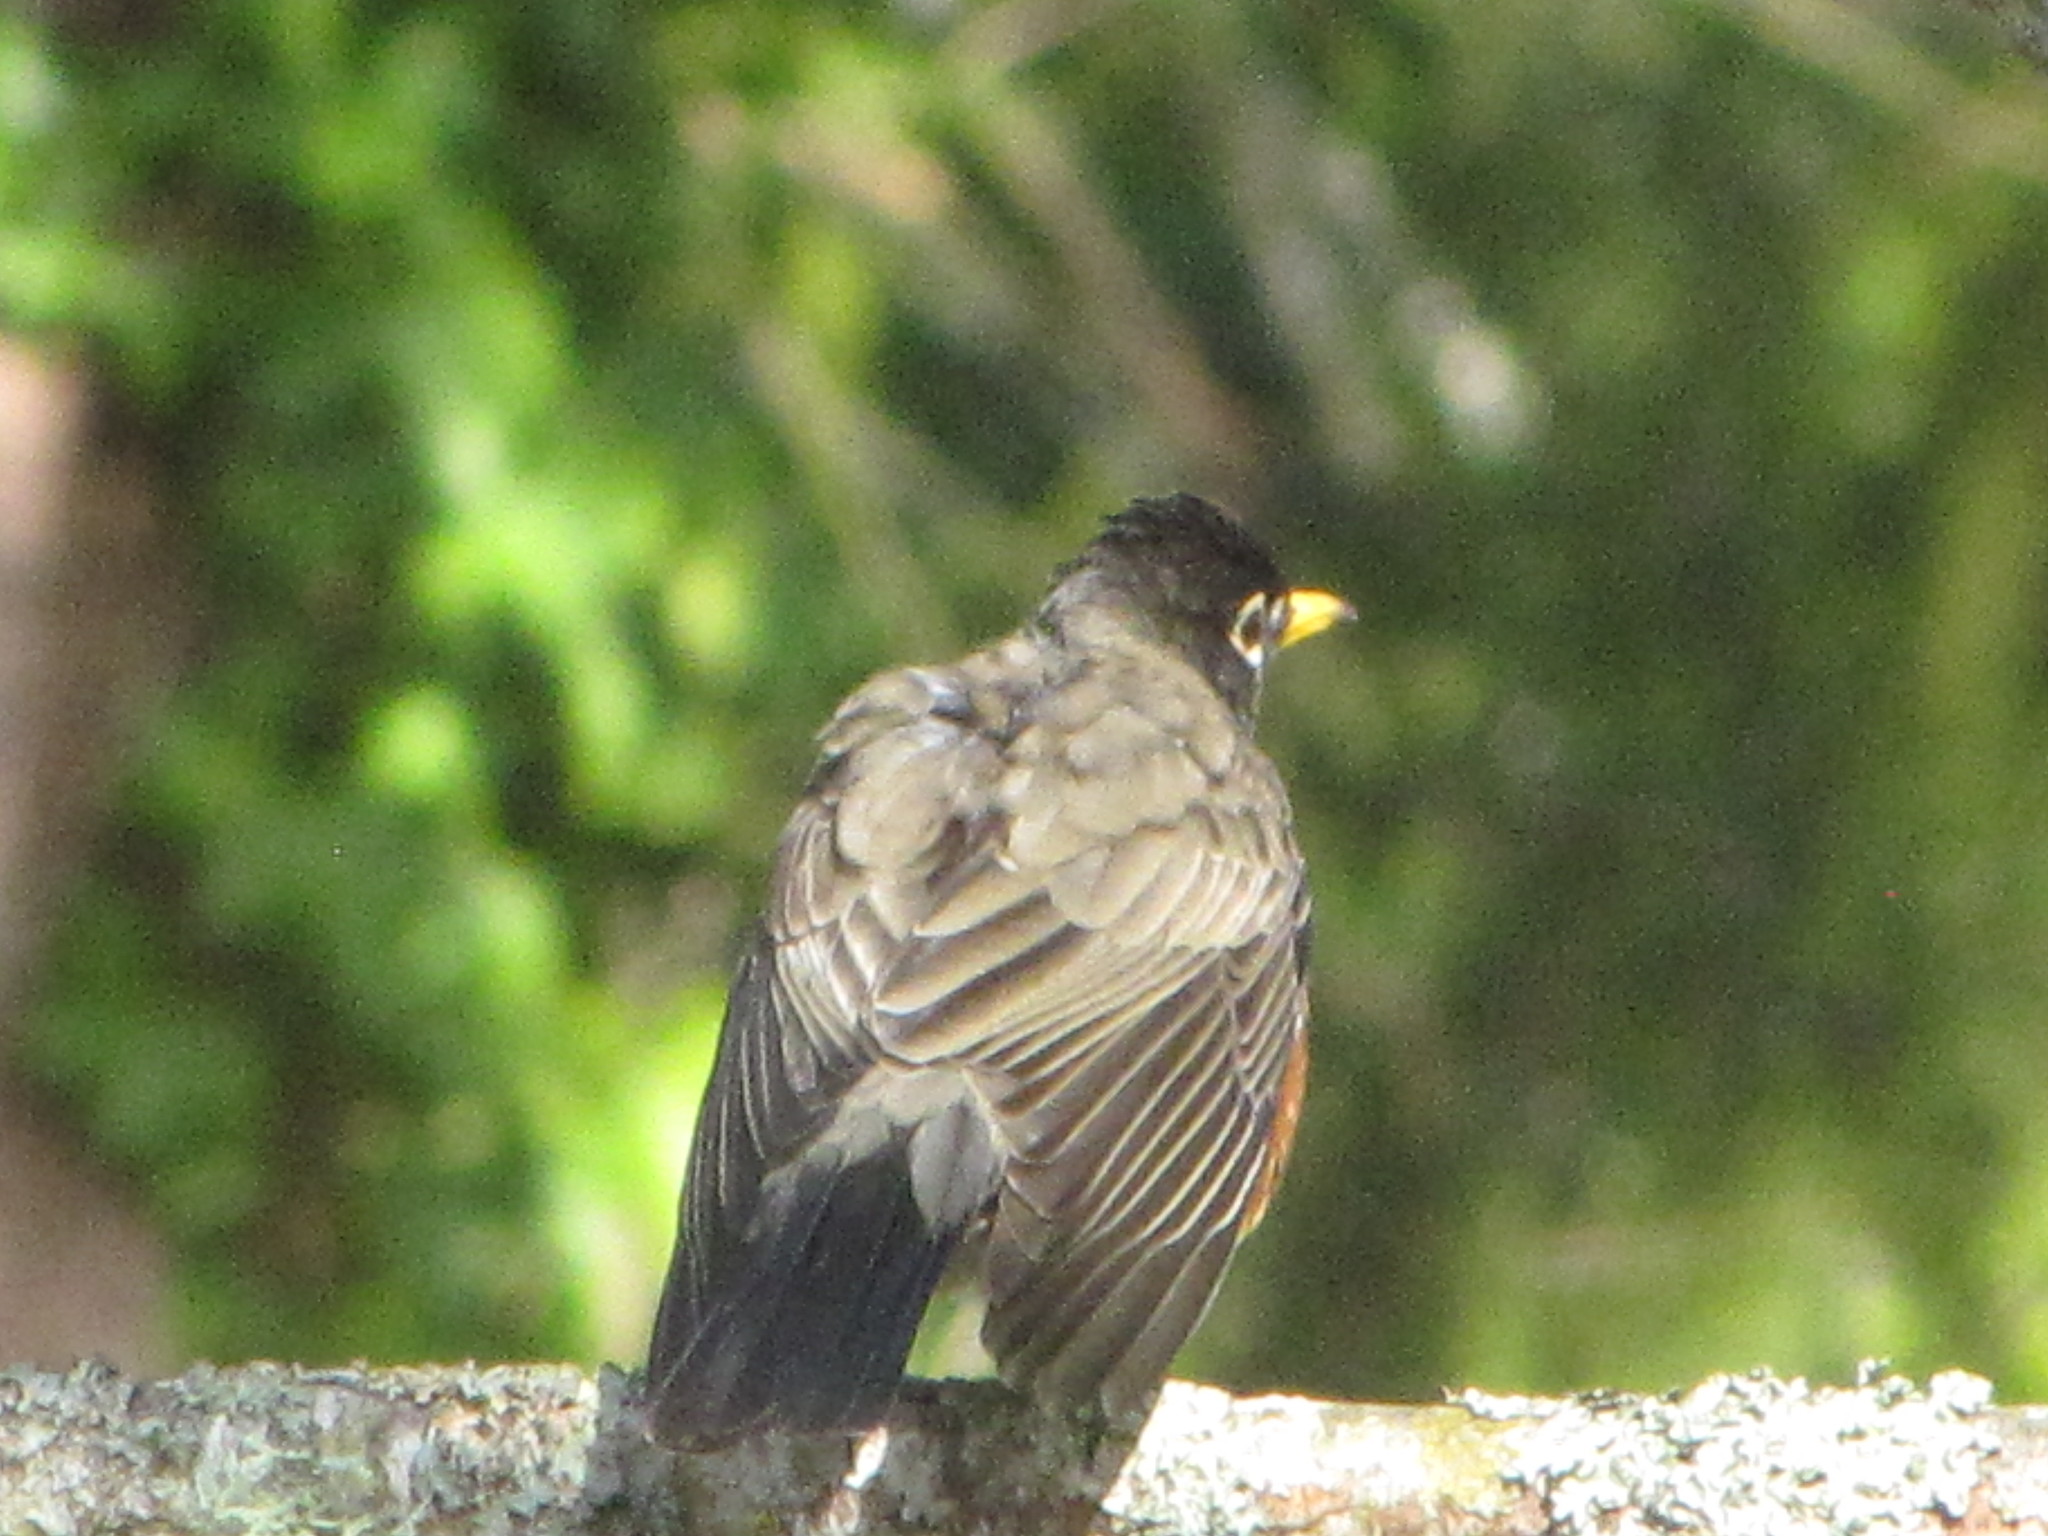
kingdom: Animalia
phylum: Chordata
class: Aves
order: Passeriformes
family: Turdidae
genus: Turdus
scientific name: Turdus migratorius
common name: American robin
